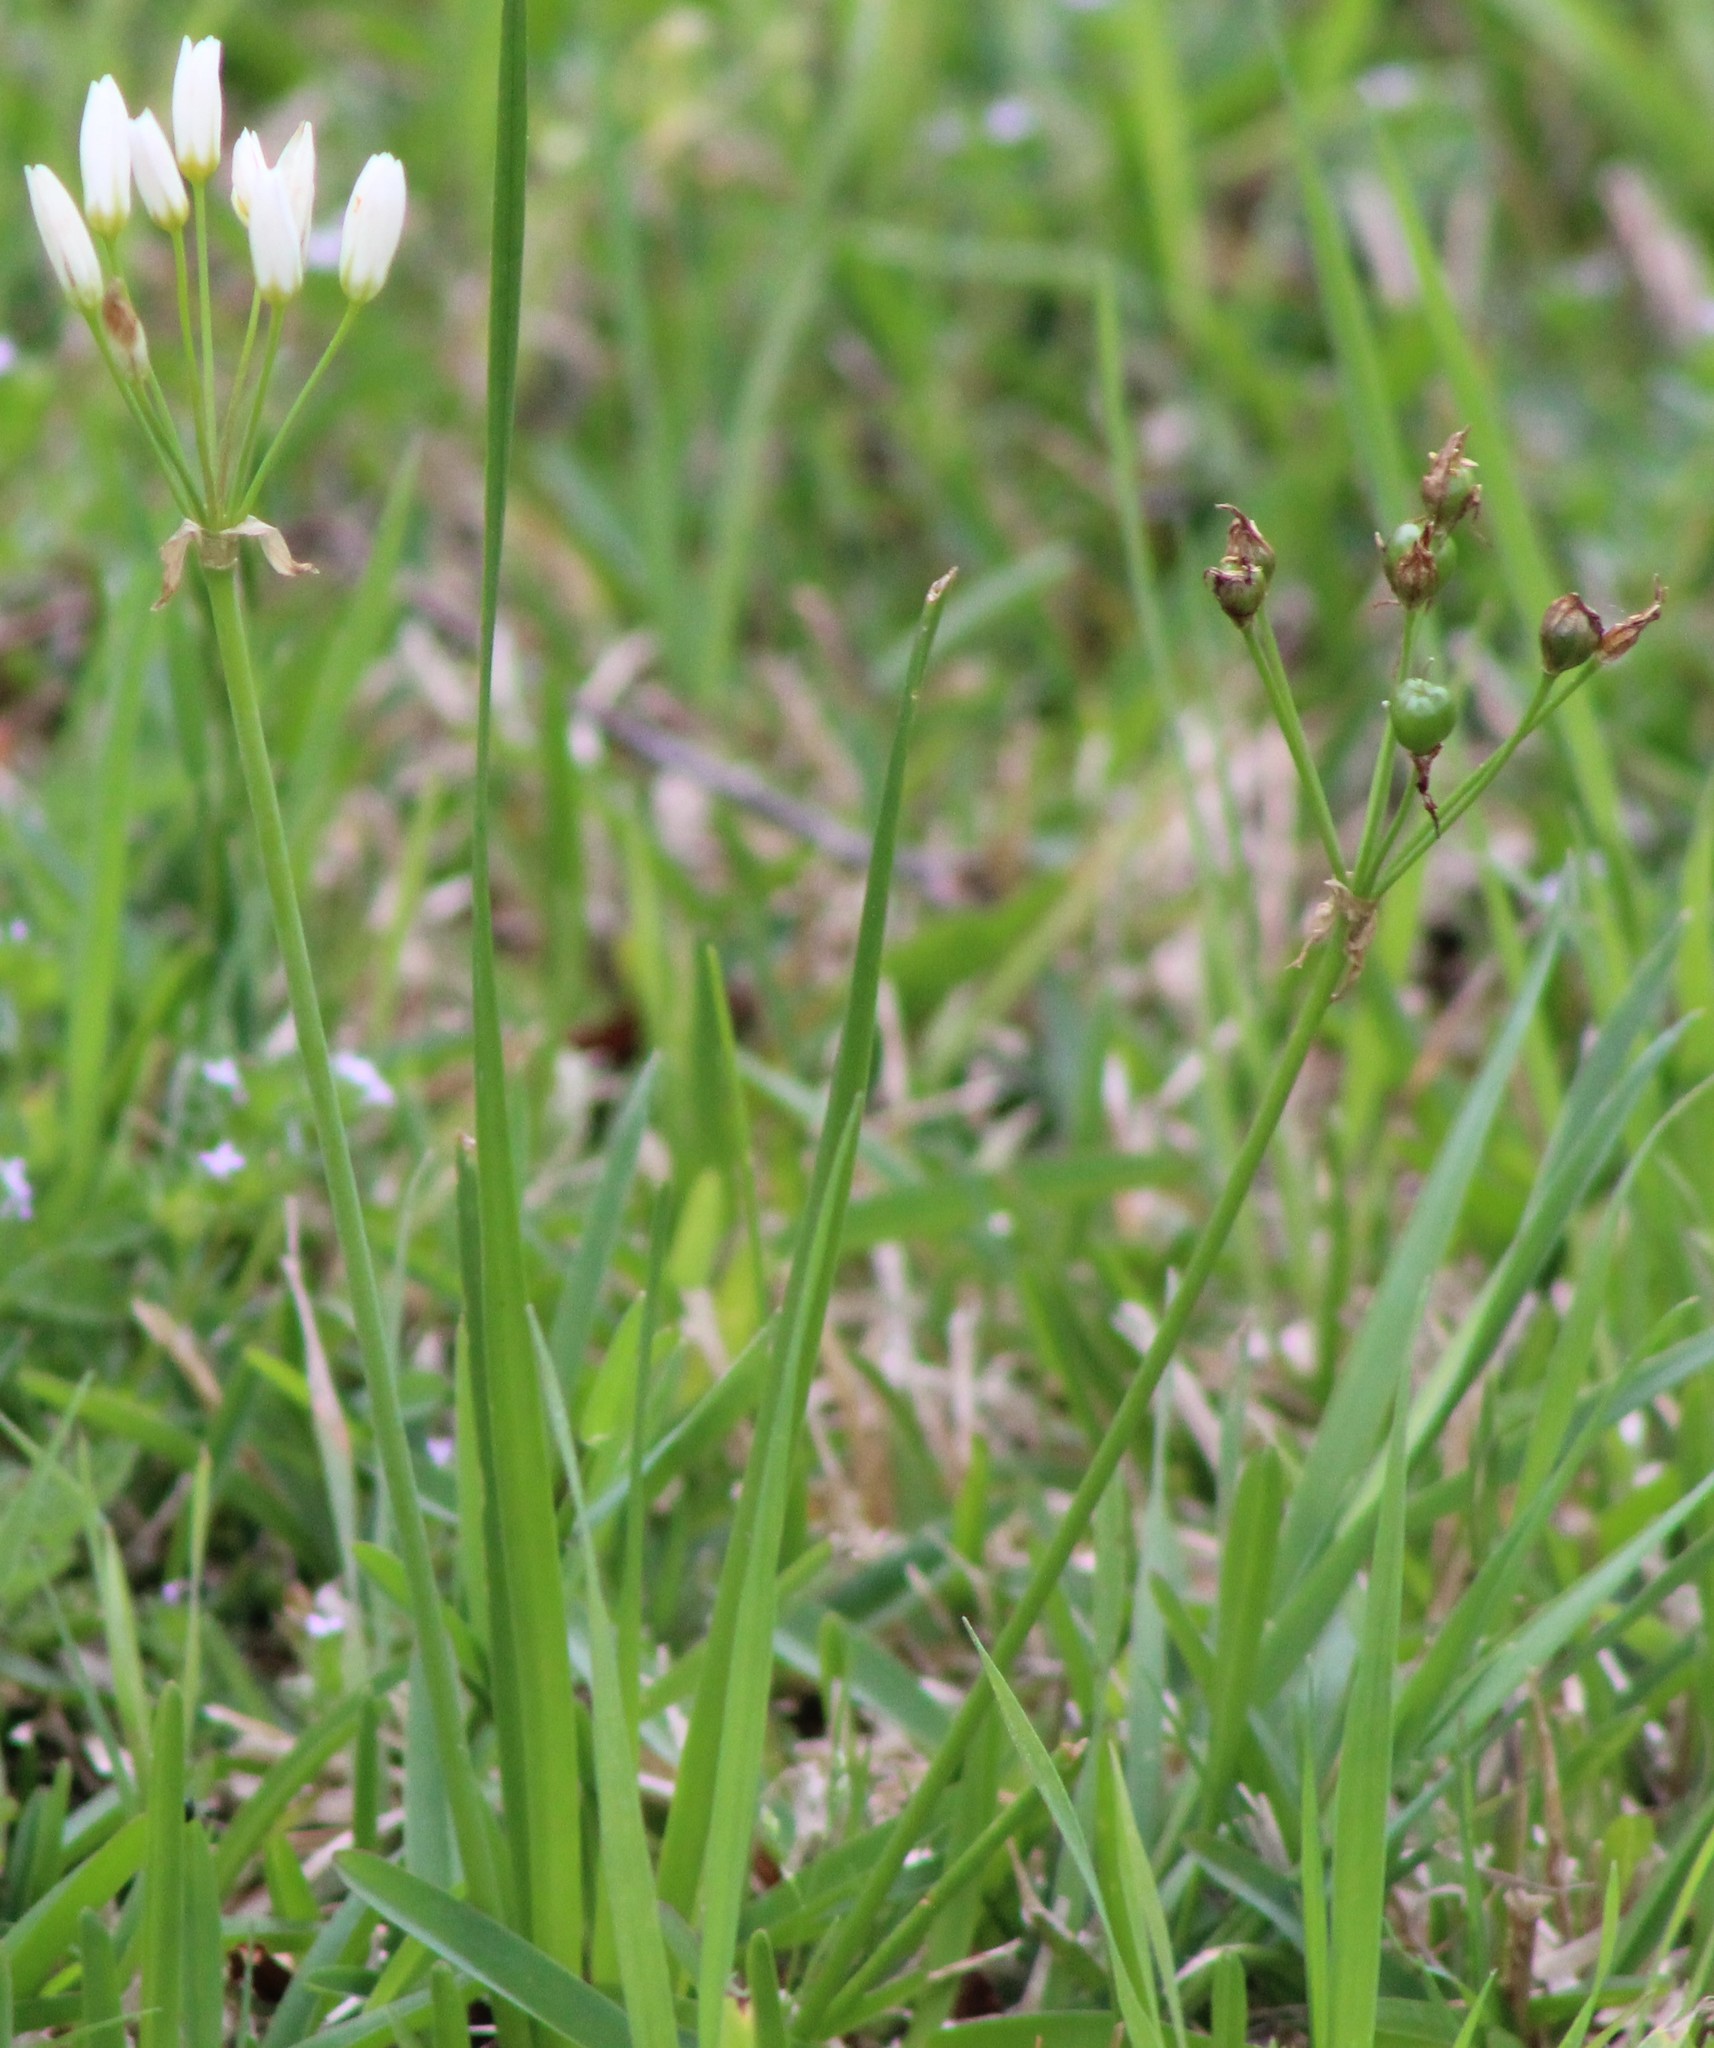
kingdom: Plantae
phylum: Tracheophyta
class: Liliopsida
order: Asparagales
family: Amaryllidaceae
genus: Nothoscordum
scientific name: Nothoscordum bivalve
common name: Crow-poison
